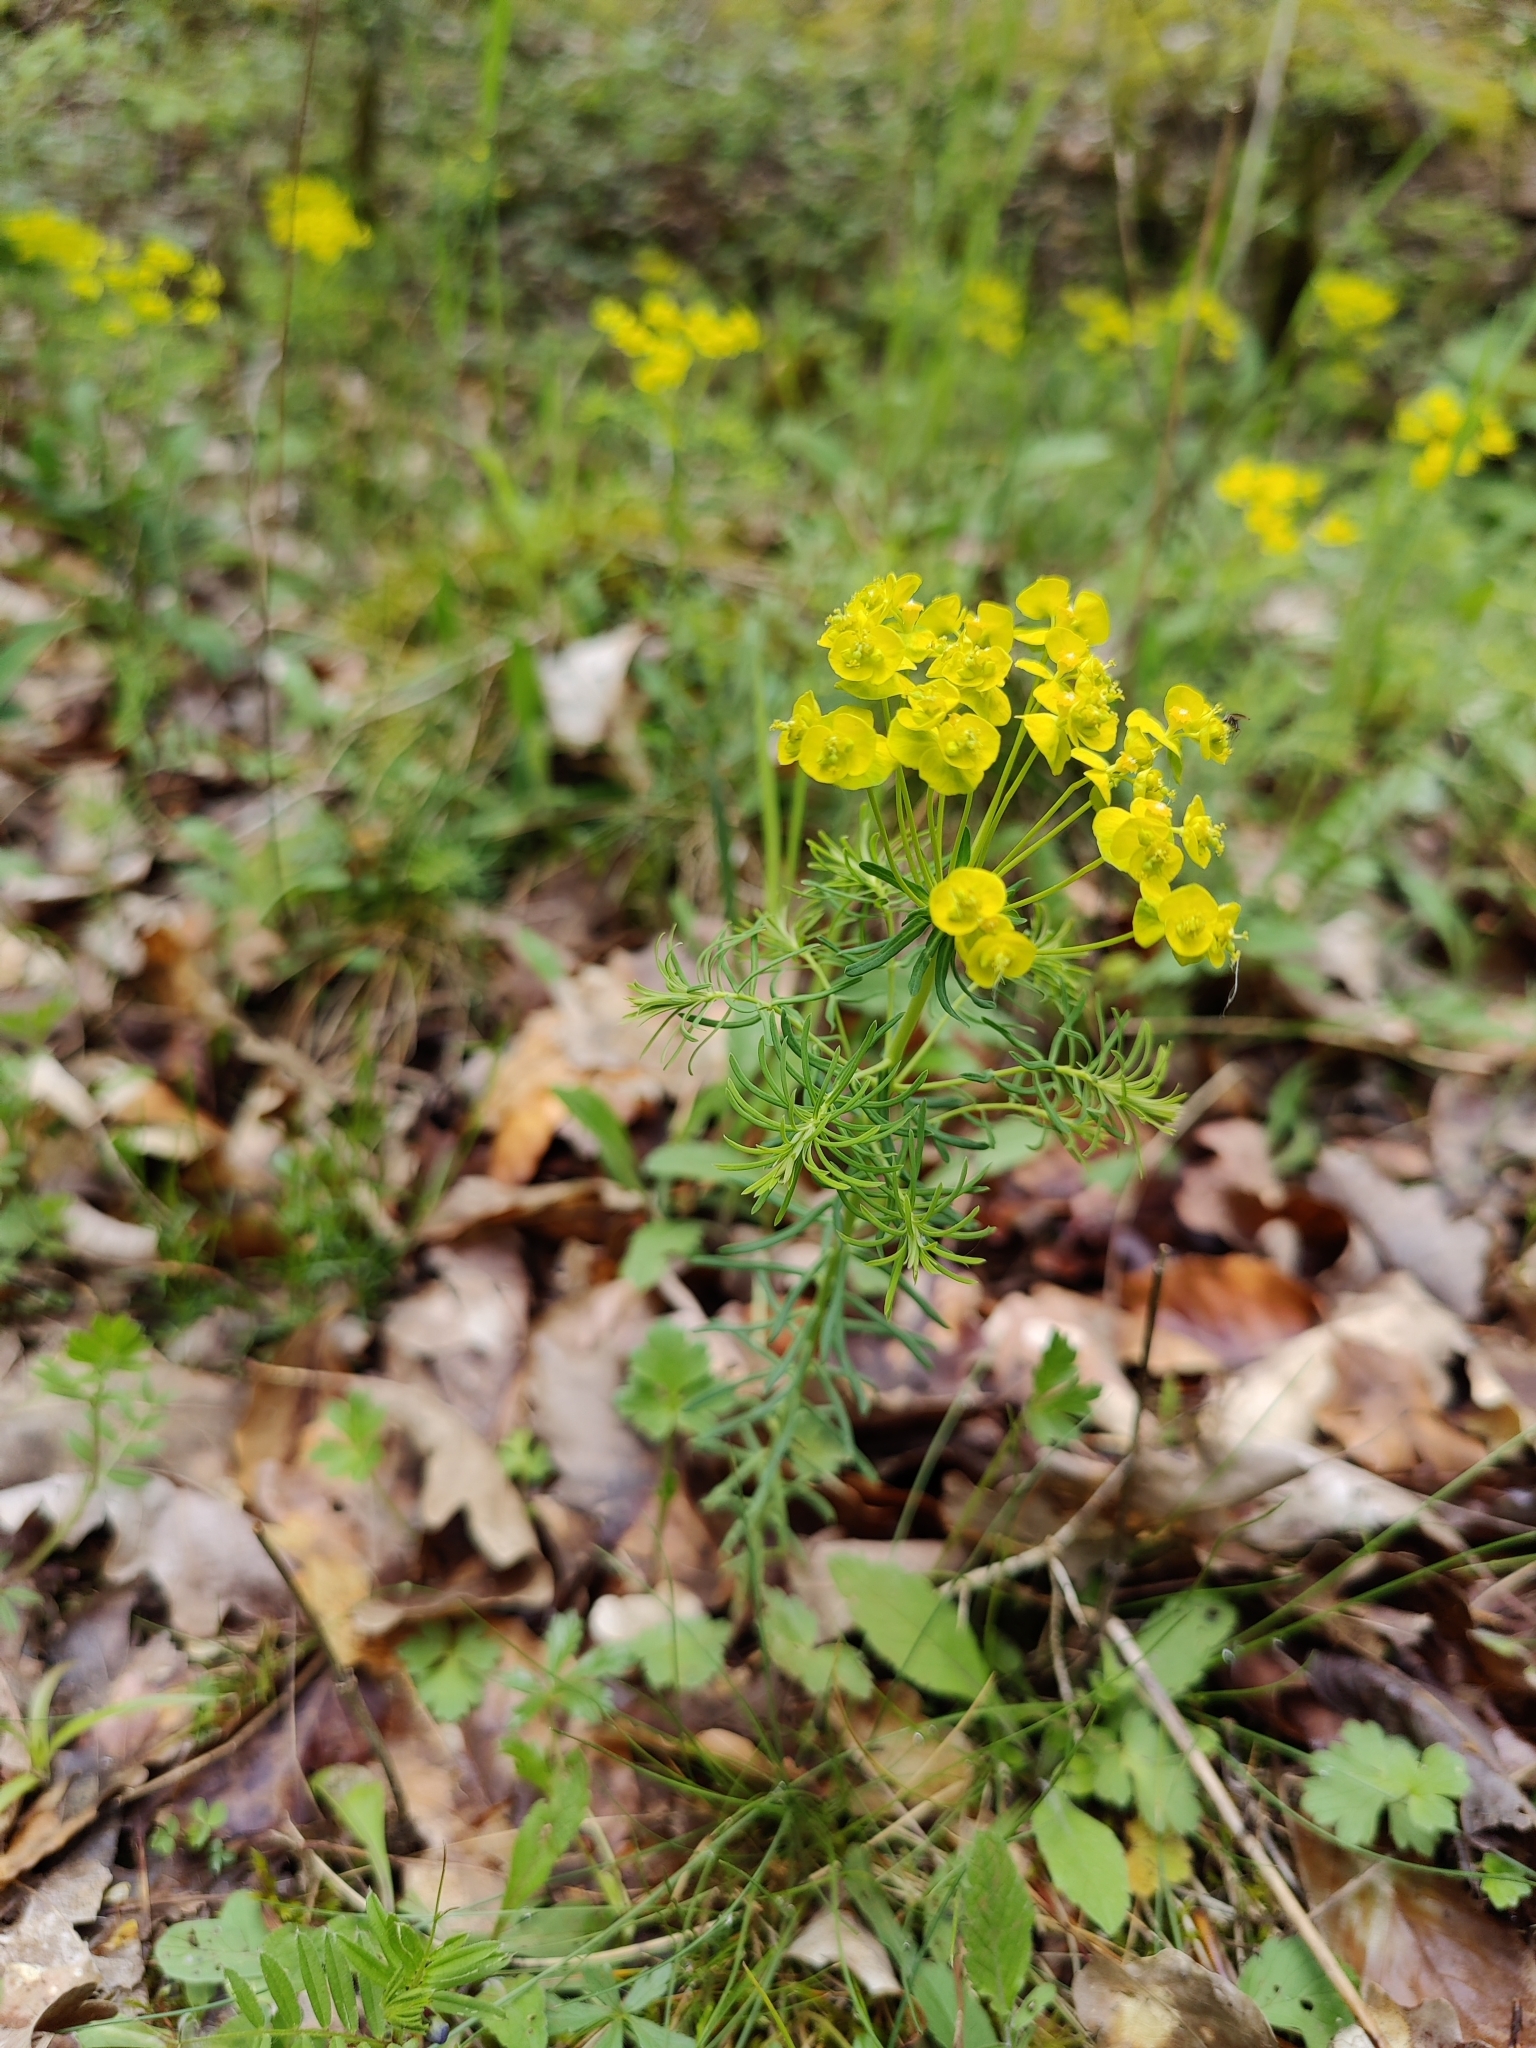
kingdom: Plantae
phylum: Tracheophyta
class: Magnoliopsida
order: Malpighiales
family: Euphorbiaceae
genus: Euphorbia
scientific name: Euphorbia cyparissias
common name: Cypress spurge
